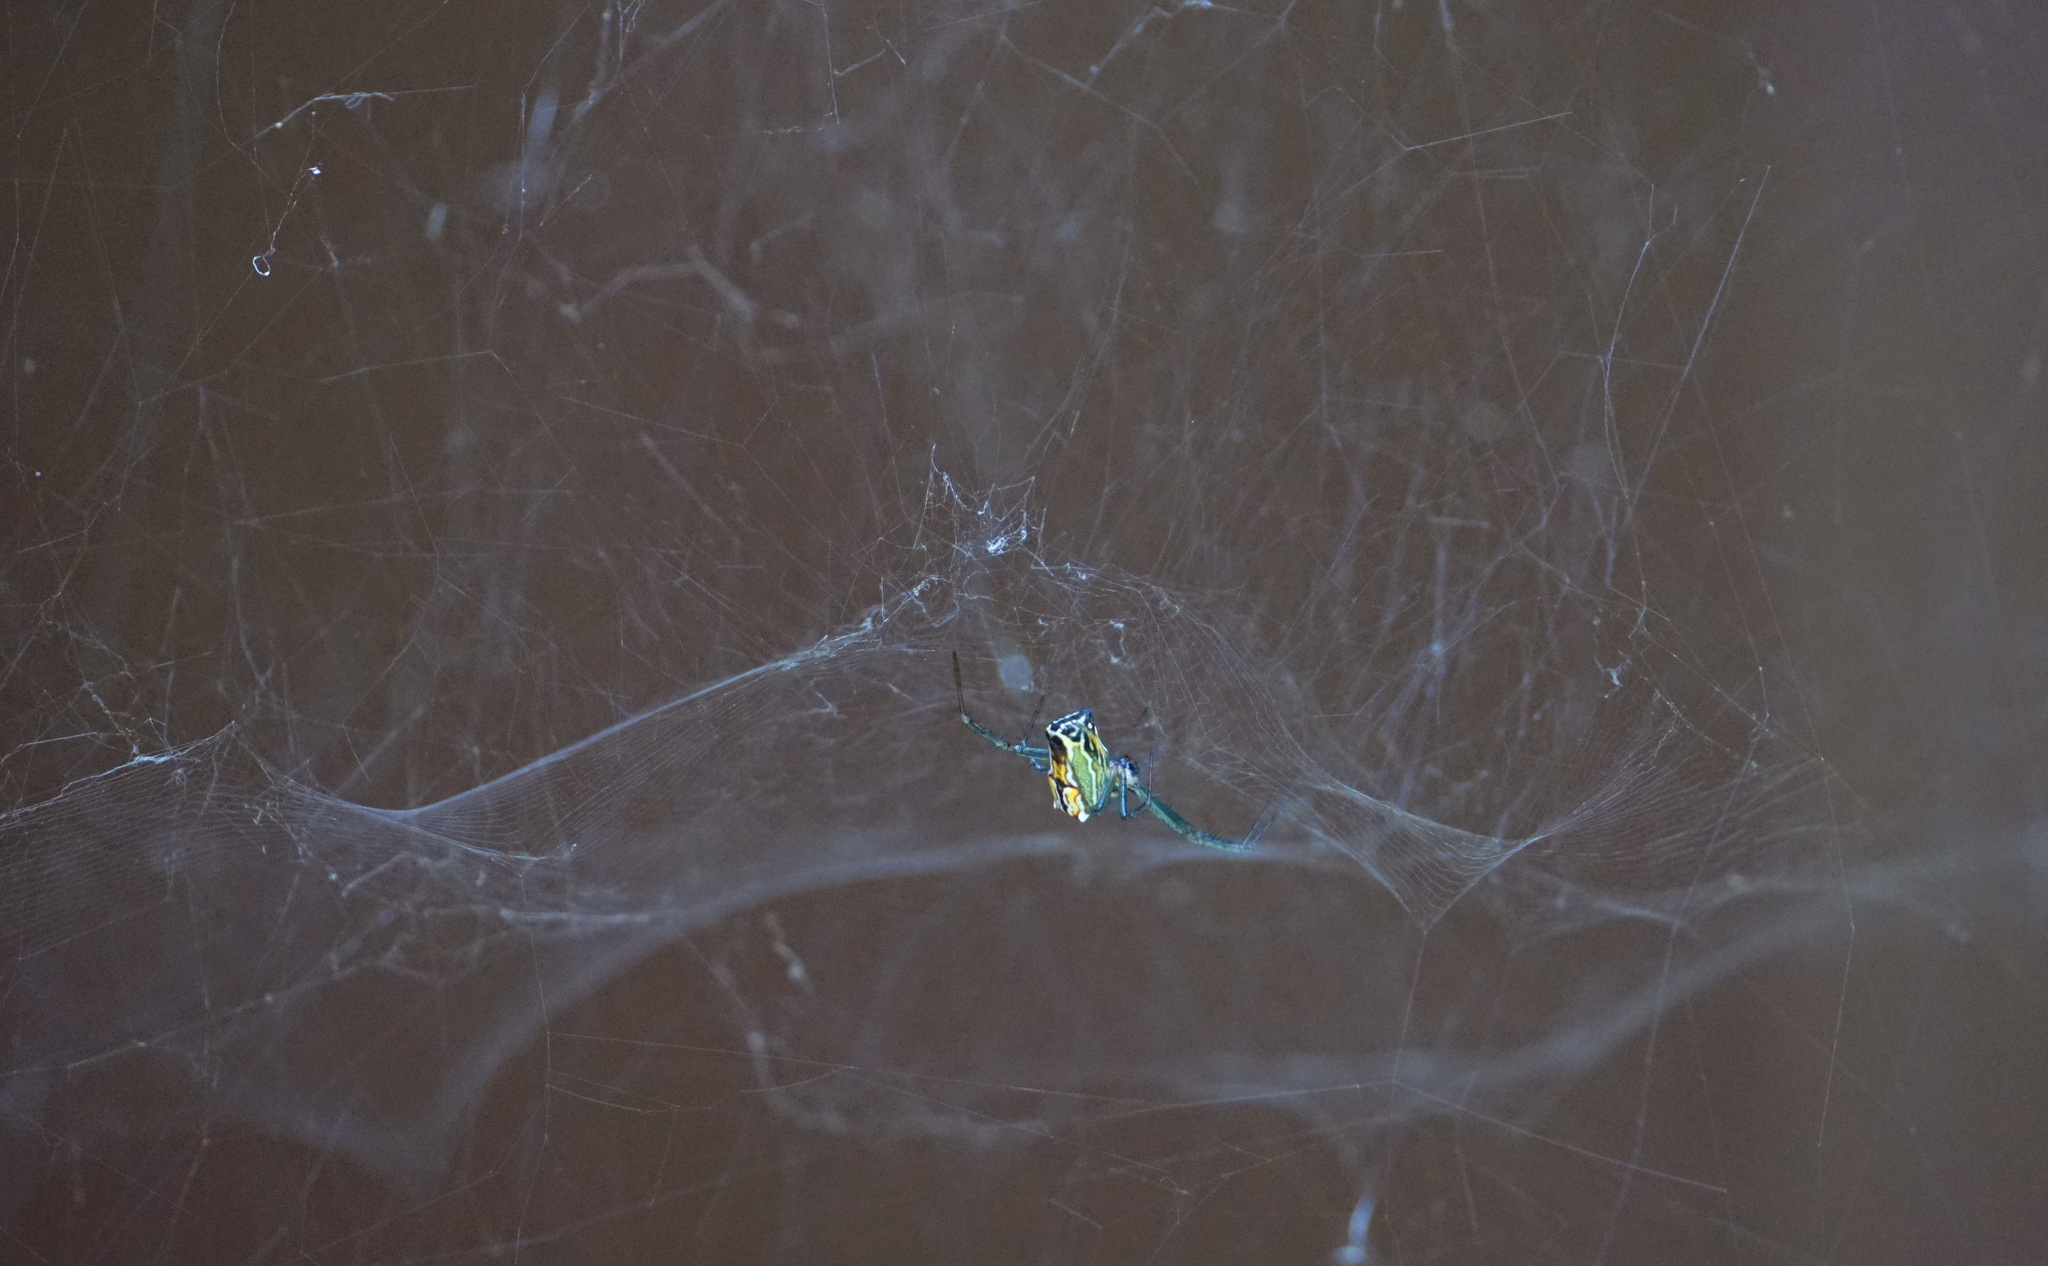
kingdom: Animalia
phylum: Arthropoda
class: Arachnida
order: Araneae
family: Araneidae
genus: Mecynogea
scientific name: Mecynogea lemniscata
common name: Orb weavers
